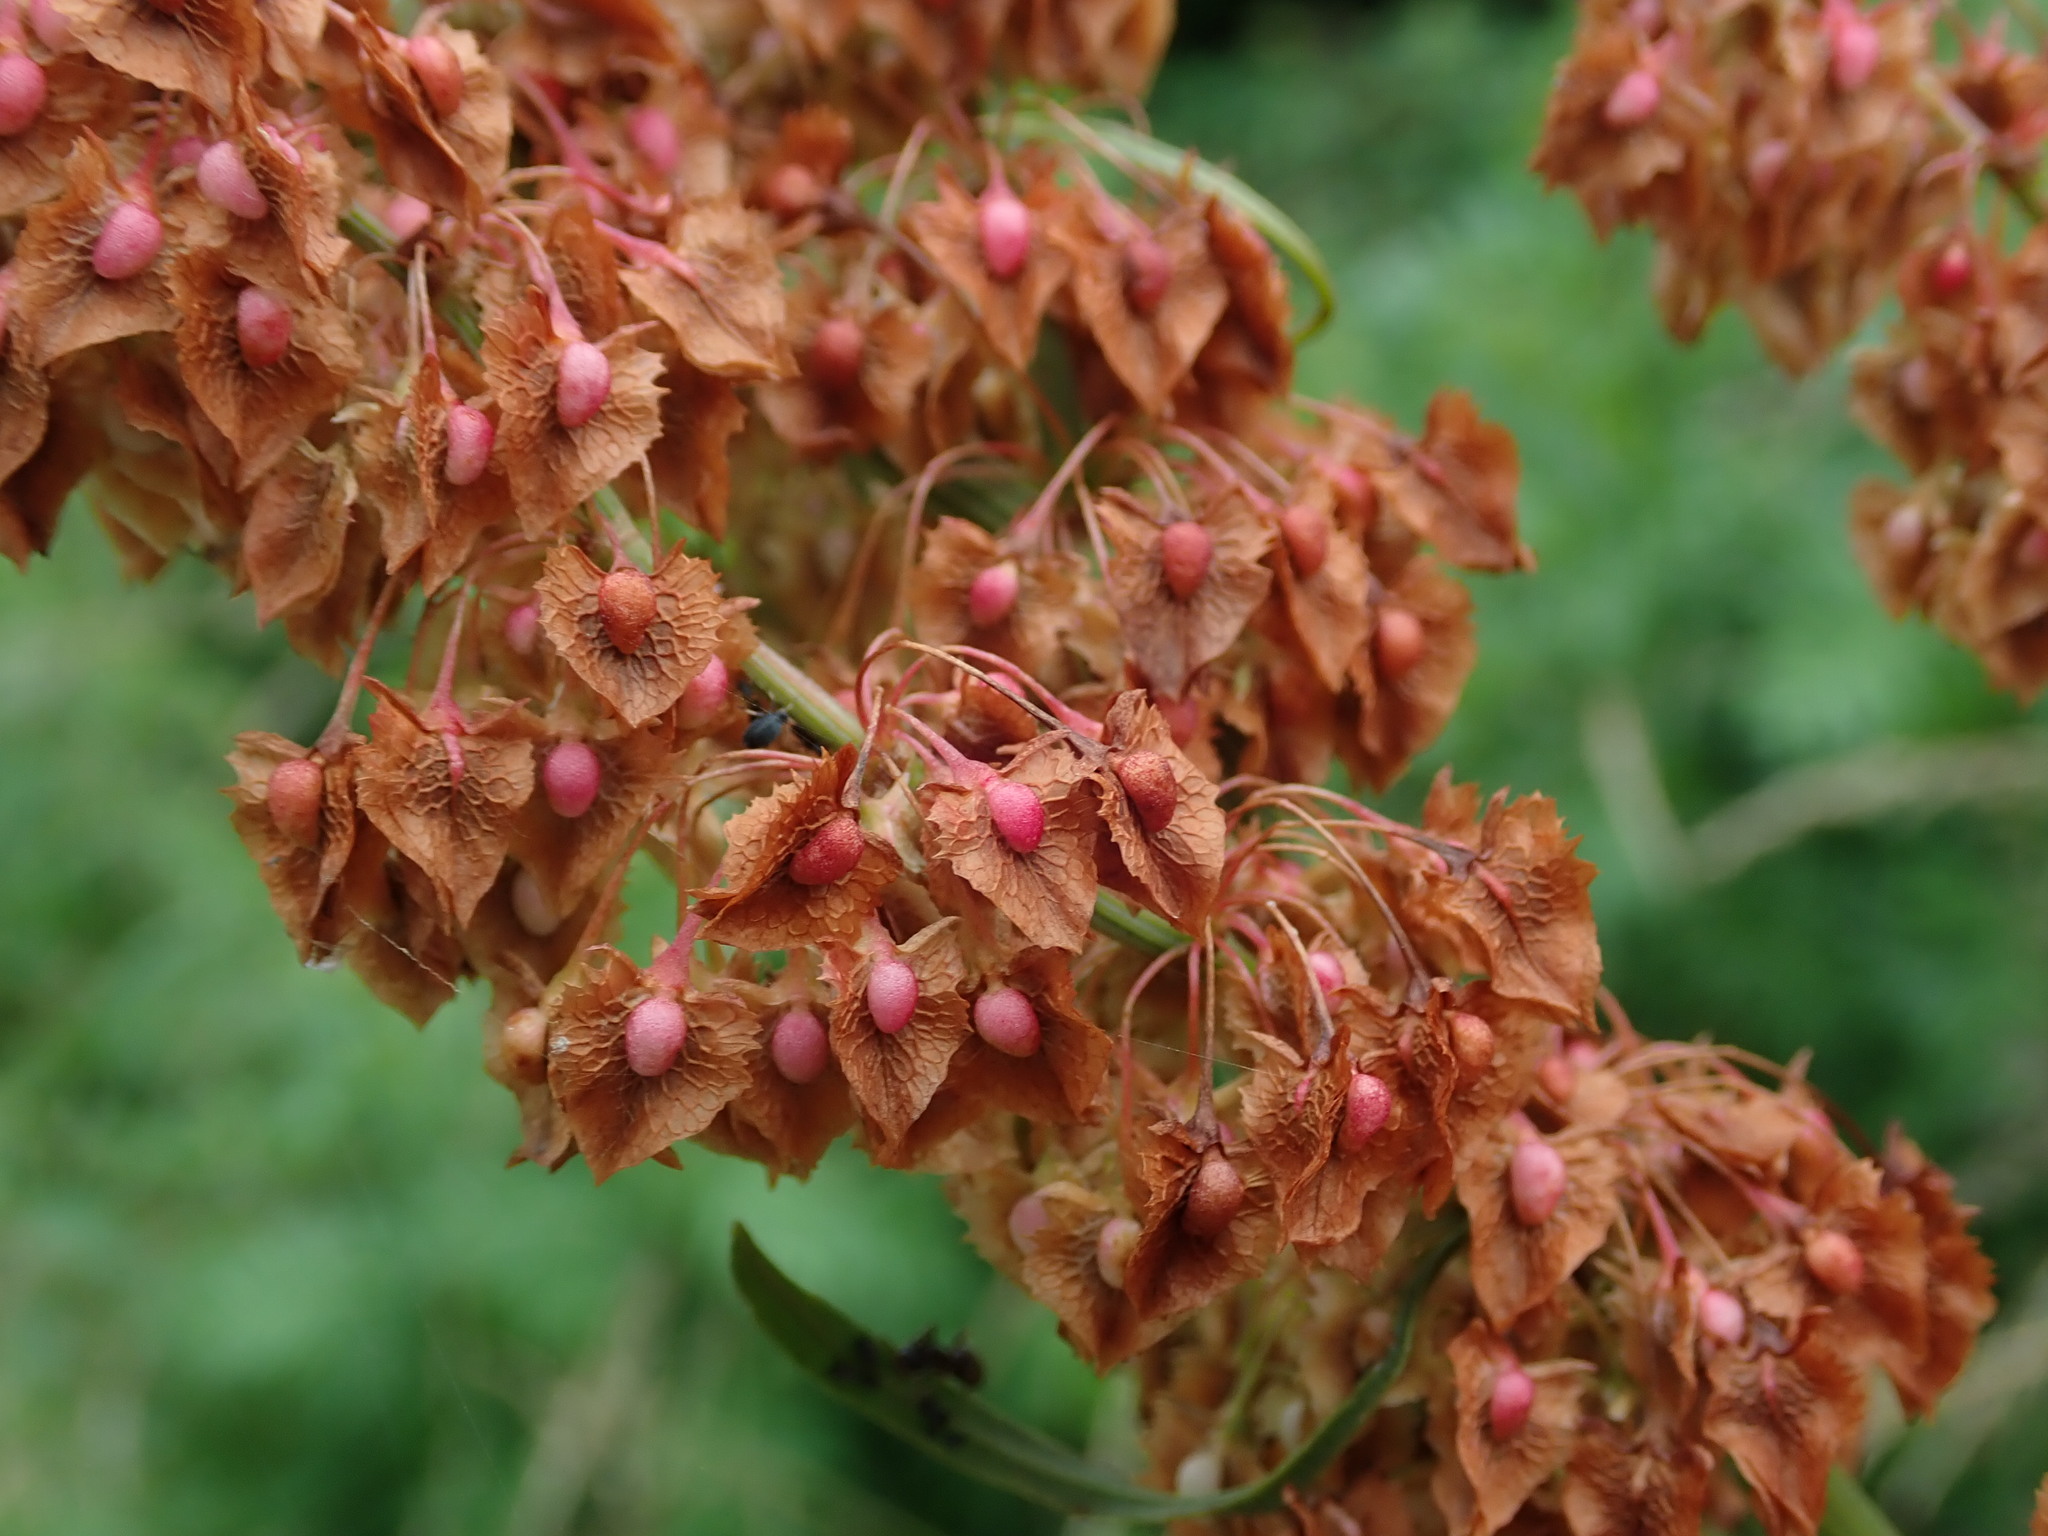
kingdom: Plantae
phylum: Tracheophyta
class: Magnoliopsida
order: Caryophyllales
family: Polygonaceae
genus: Rumex
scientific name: Rumex cristatus
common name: Greek dock
